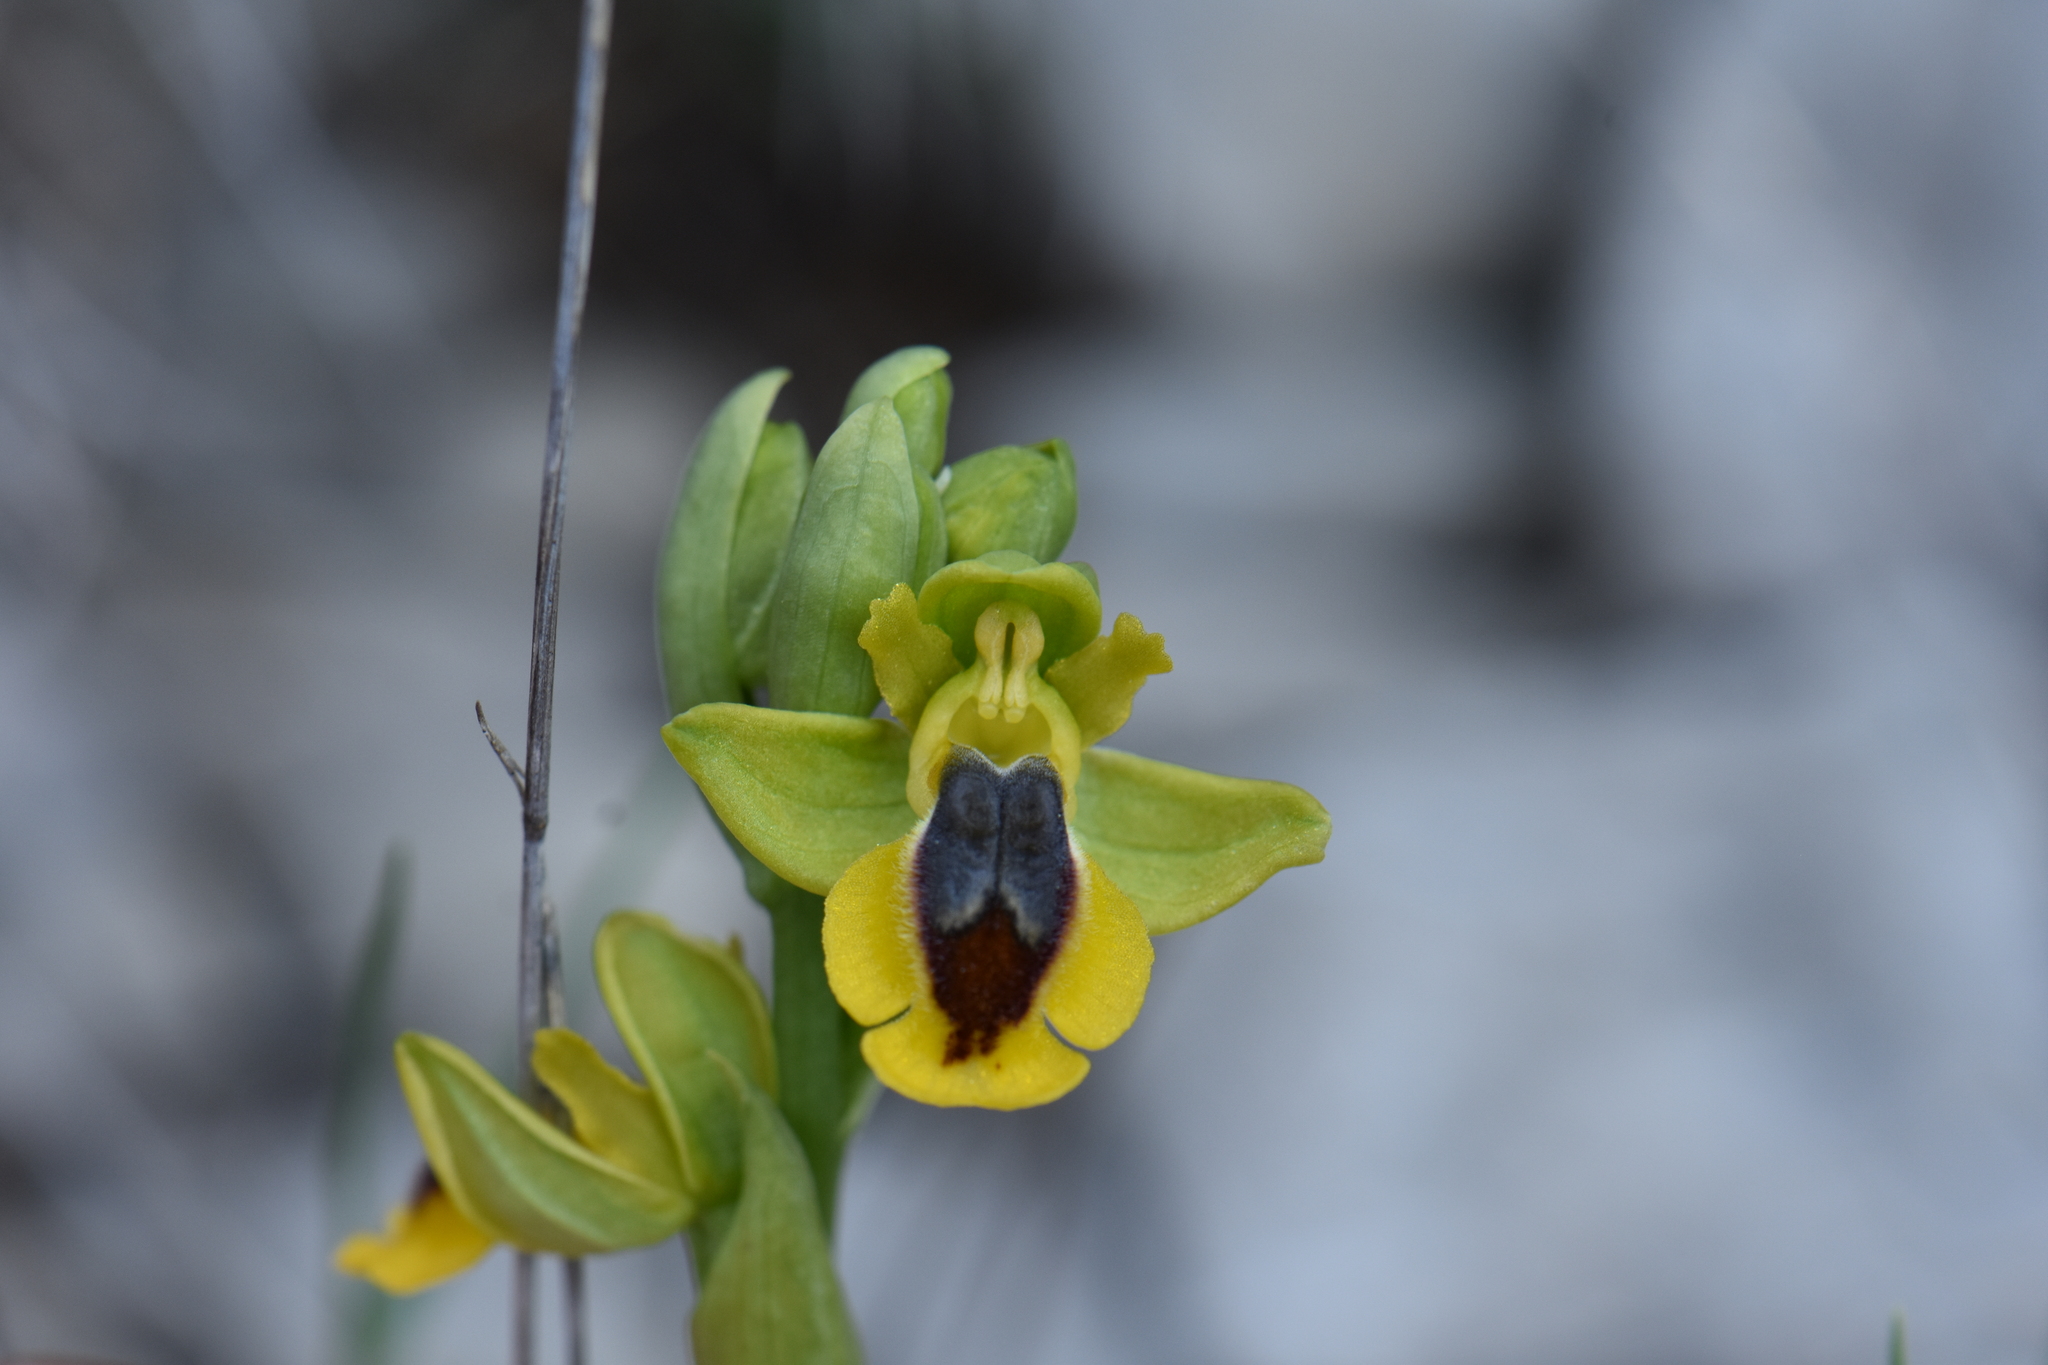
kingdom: Plantae
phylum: Tracheophyta
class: Liliopsida
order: Asparagales
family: Orchidaceae
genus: Ophrys
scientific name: Ophrys lutea
